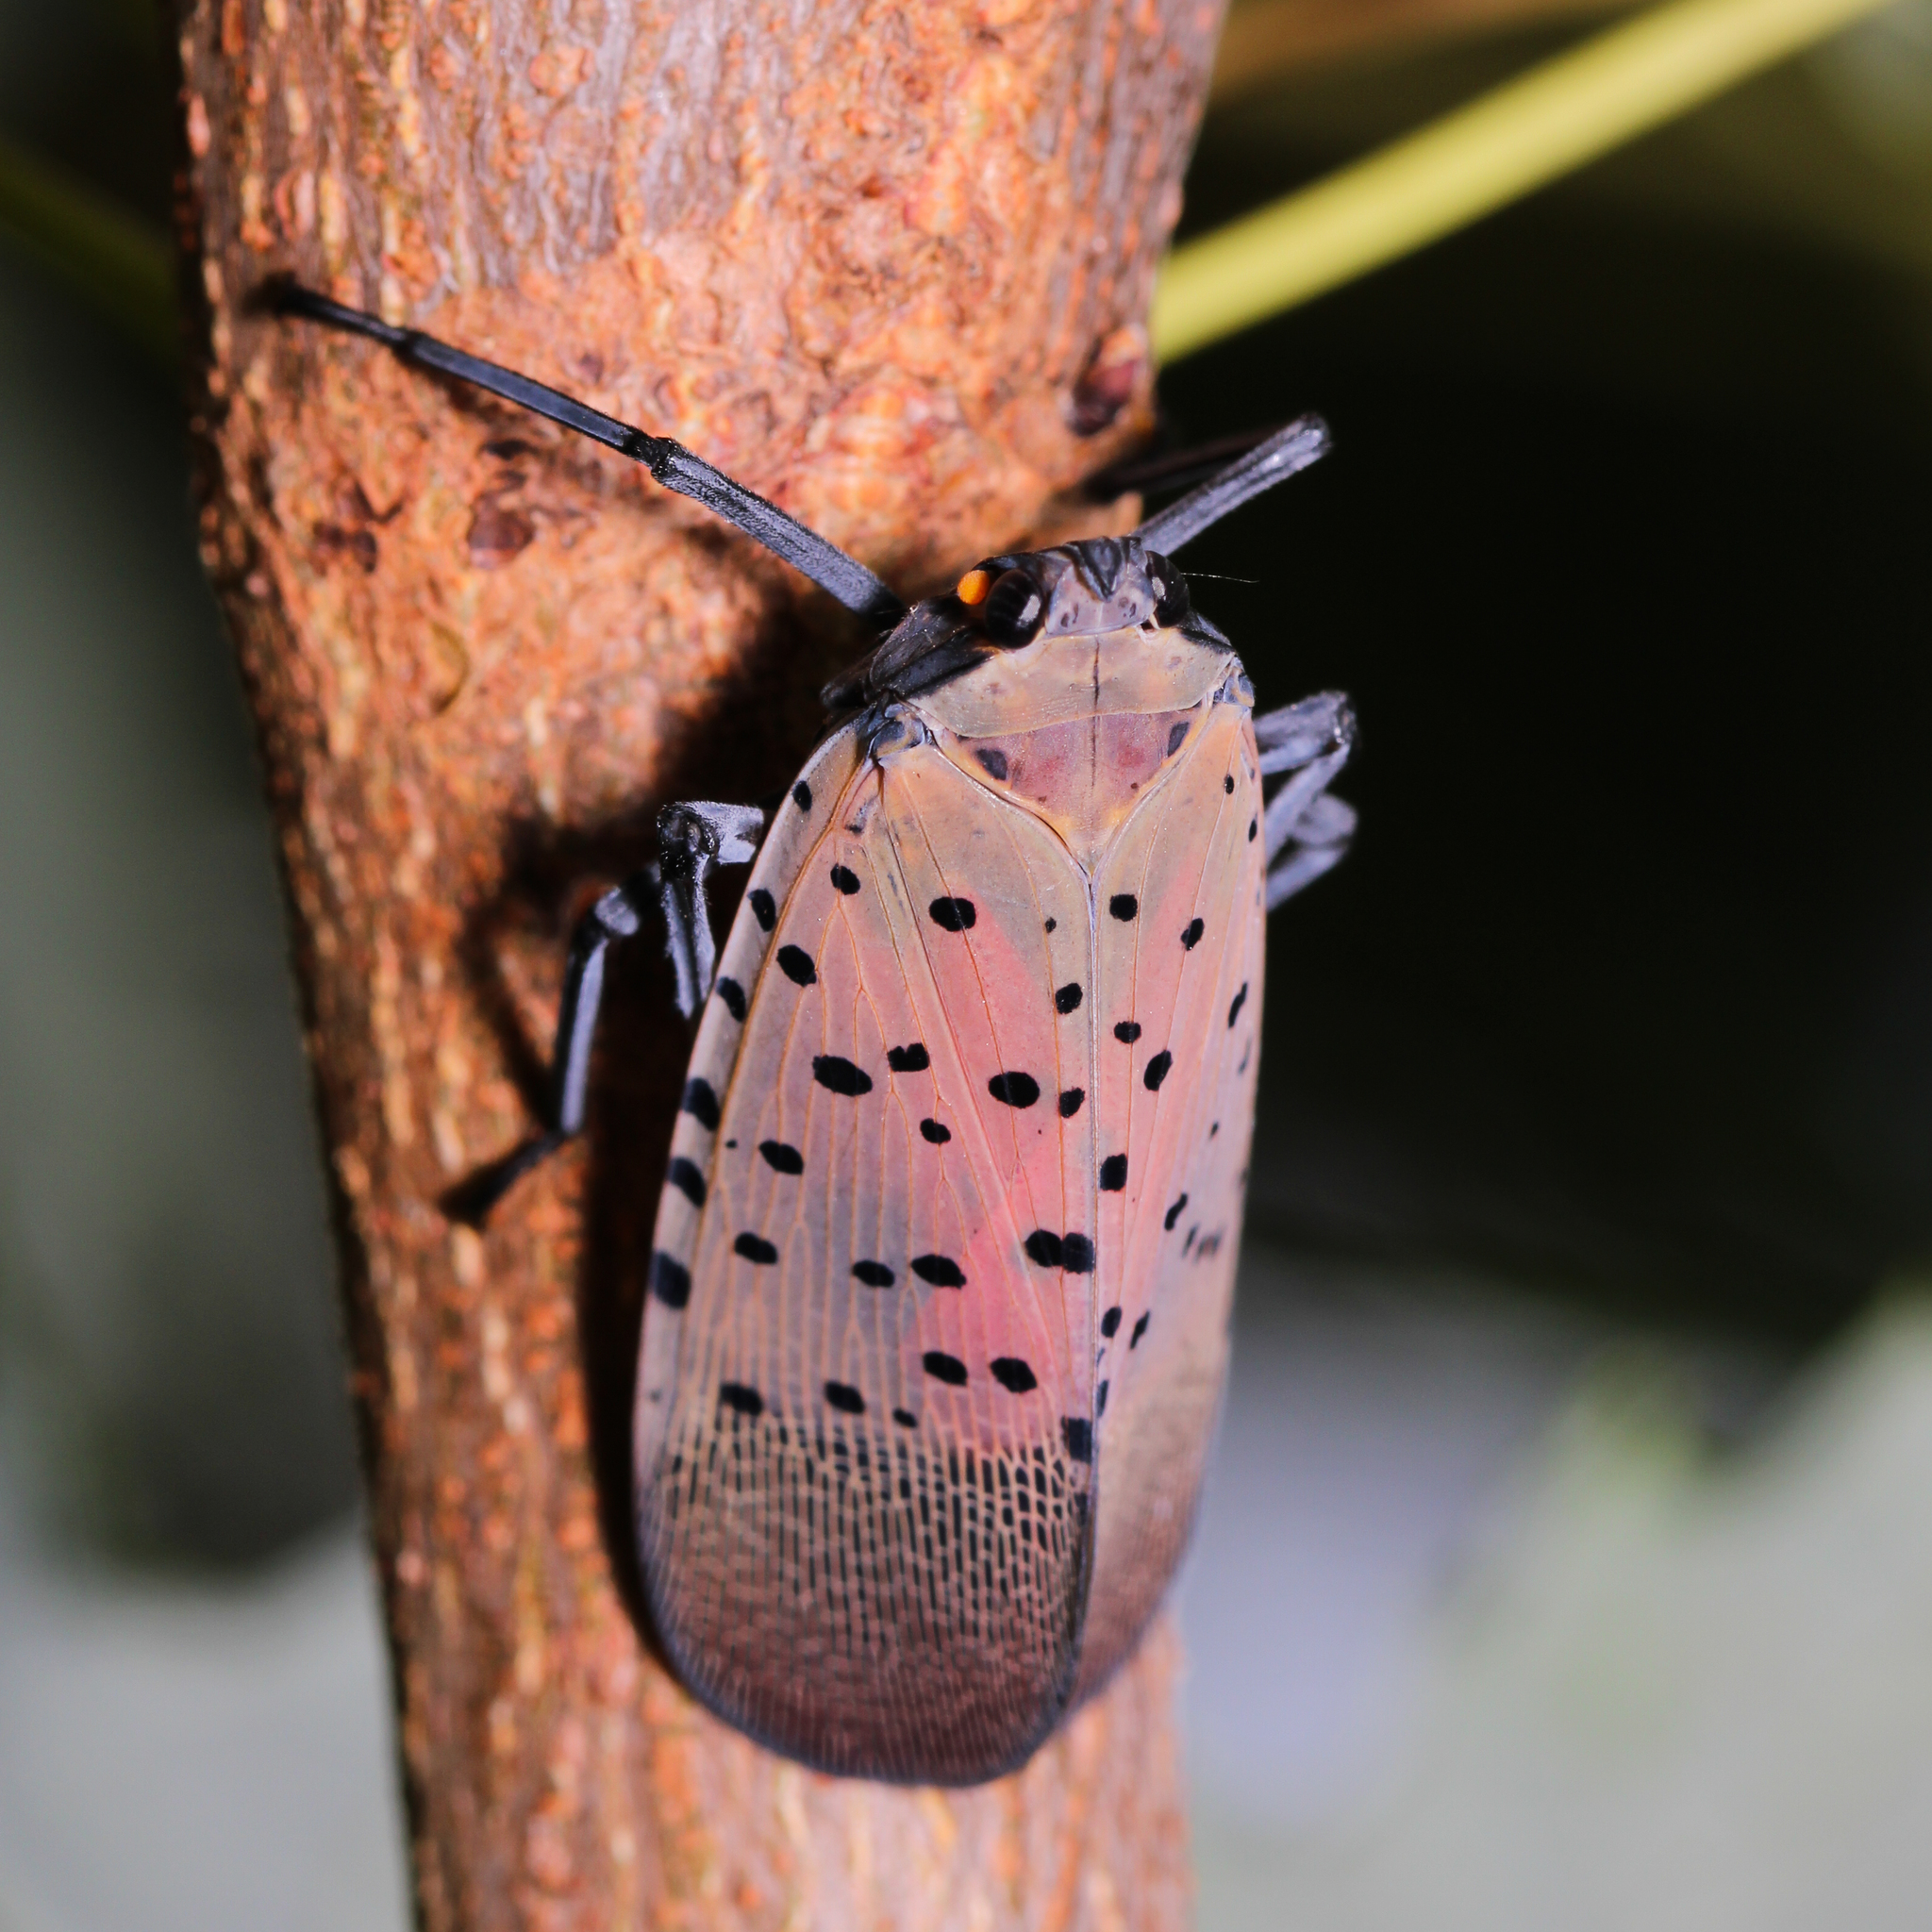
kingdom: Animalia
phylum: Arthropoda
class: Insecta
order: Hemiptera
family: Fulgoridae
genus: Lycorma
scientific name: Lycorma delicatula
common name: Spotted lanternfly
